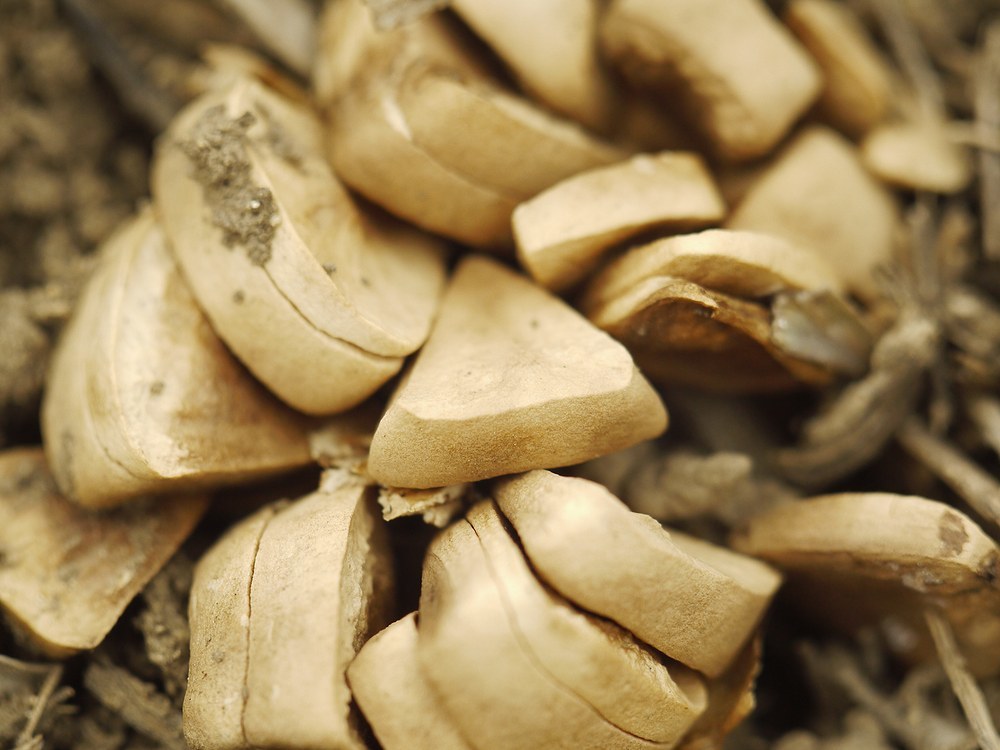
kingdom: Plantae
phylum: Tracheophyta
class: Magnoliopsida
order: Piperales
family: Aristolochiaceae
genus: Aristolochia
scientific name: Aristolochia clematitis
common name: Birthwort
